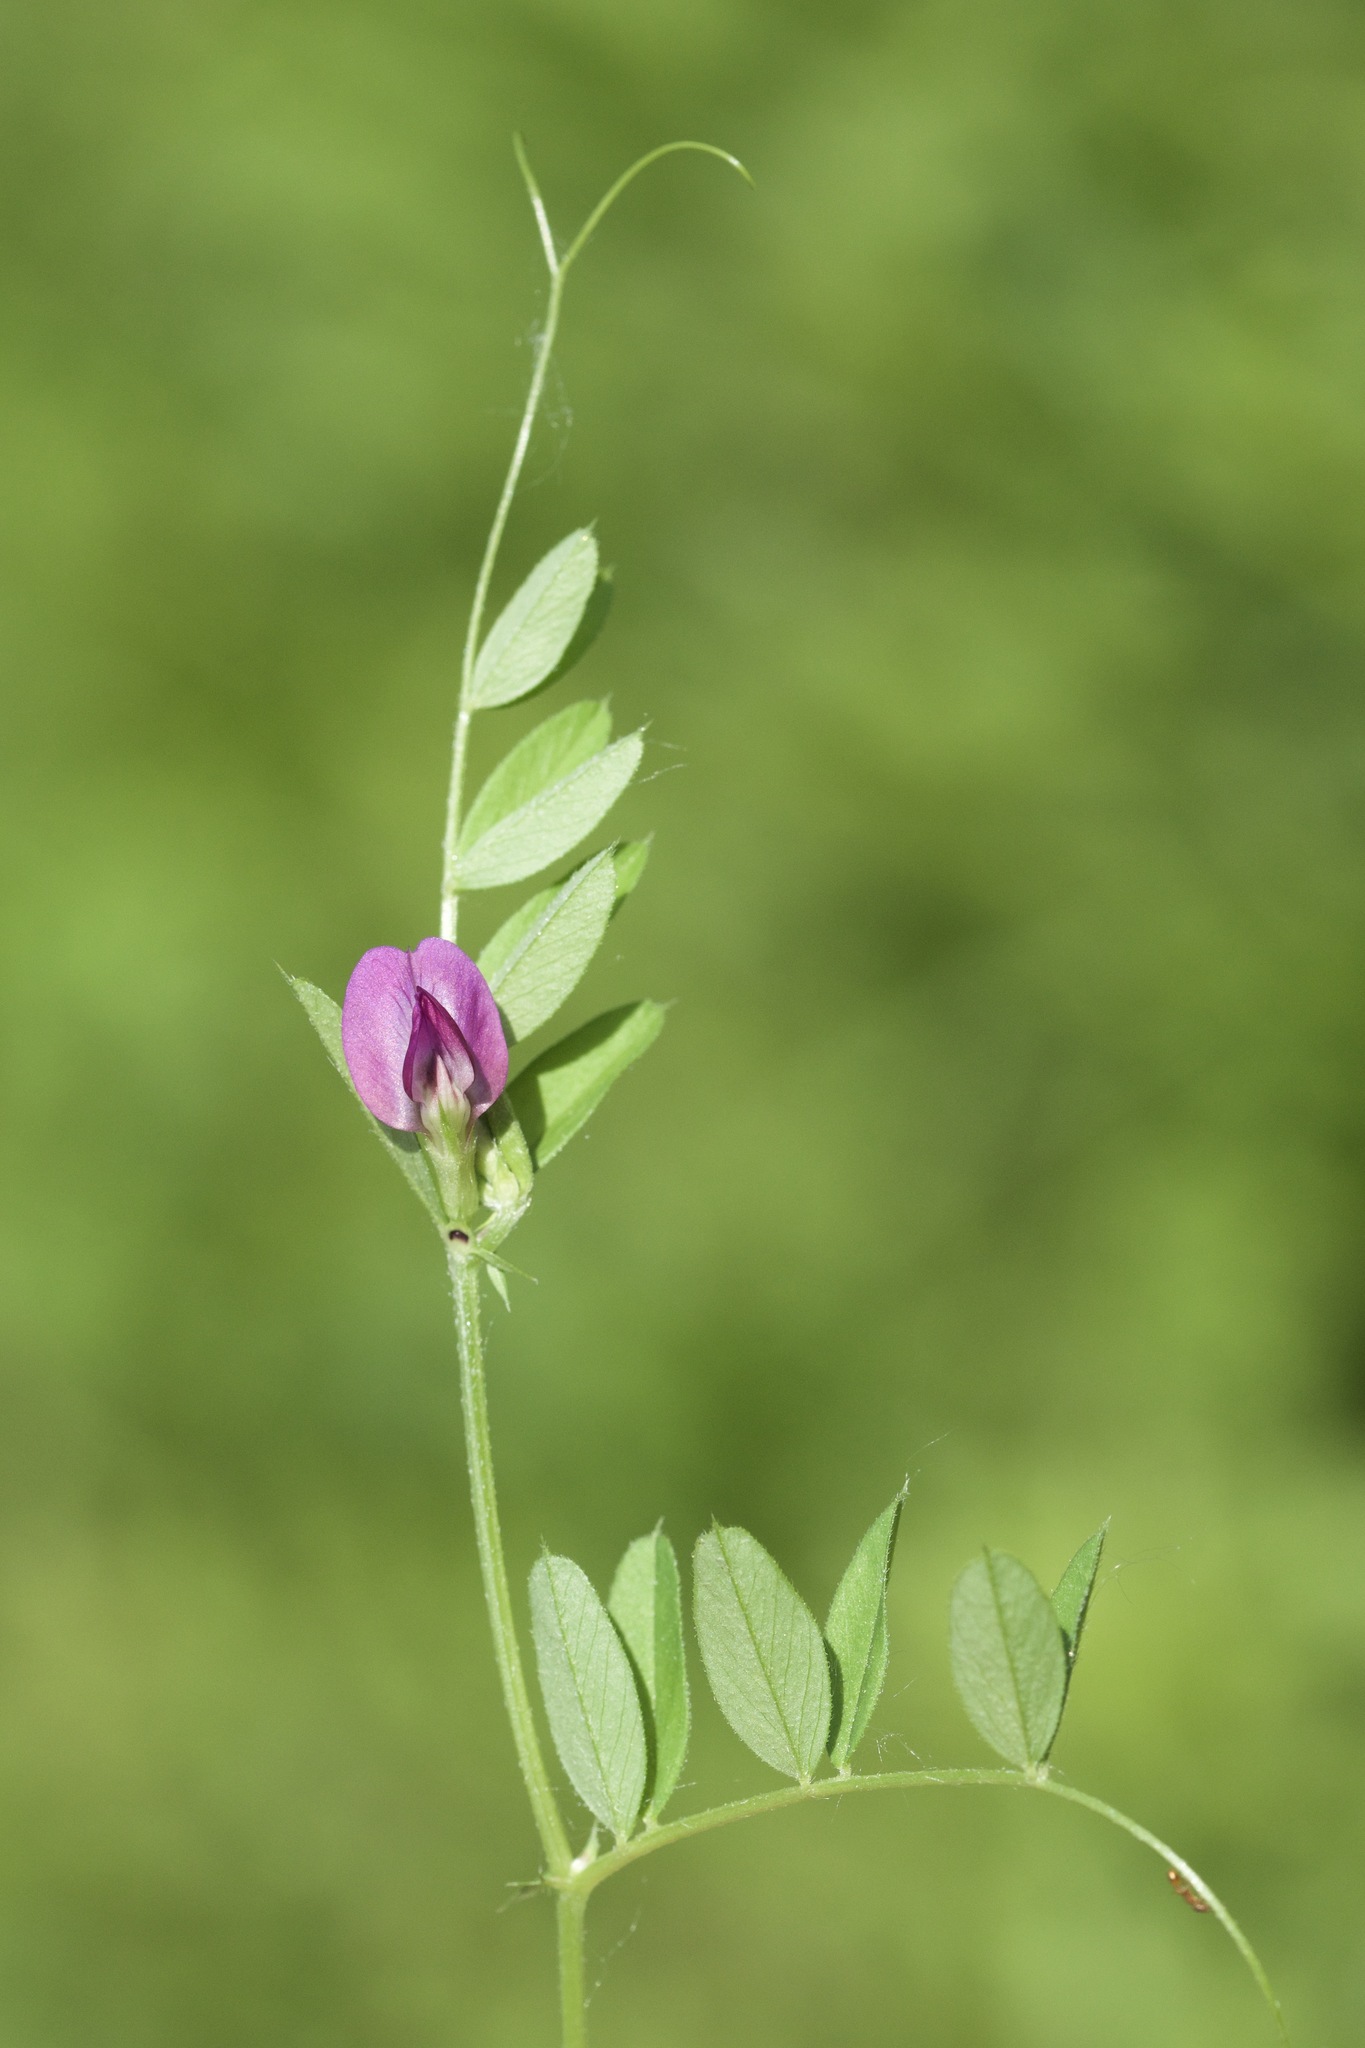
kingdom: Plantae
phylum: Tracheophyta
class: Magnoliopsida
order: Fabales
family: Fabaceae
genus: Vicia
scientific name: Vicia sativa
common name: Garden vetch
